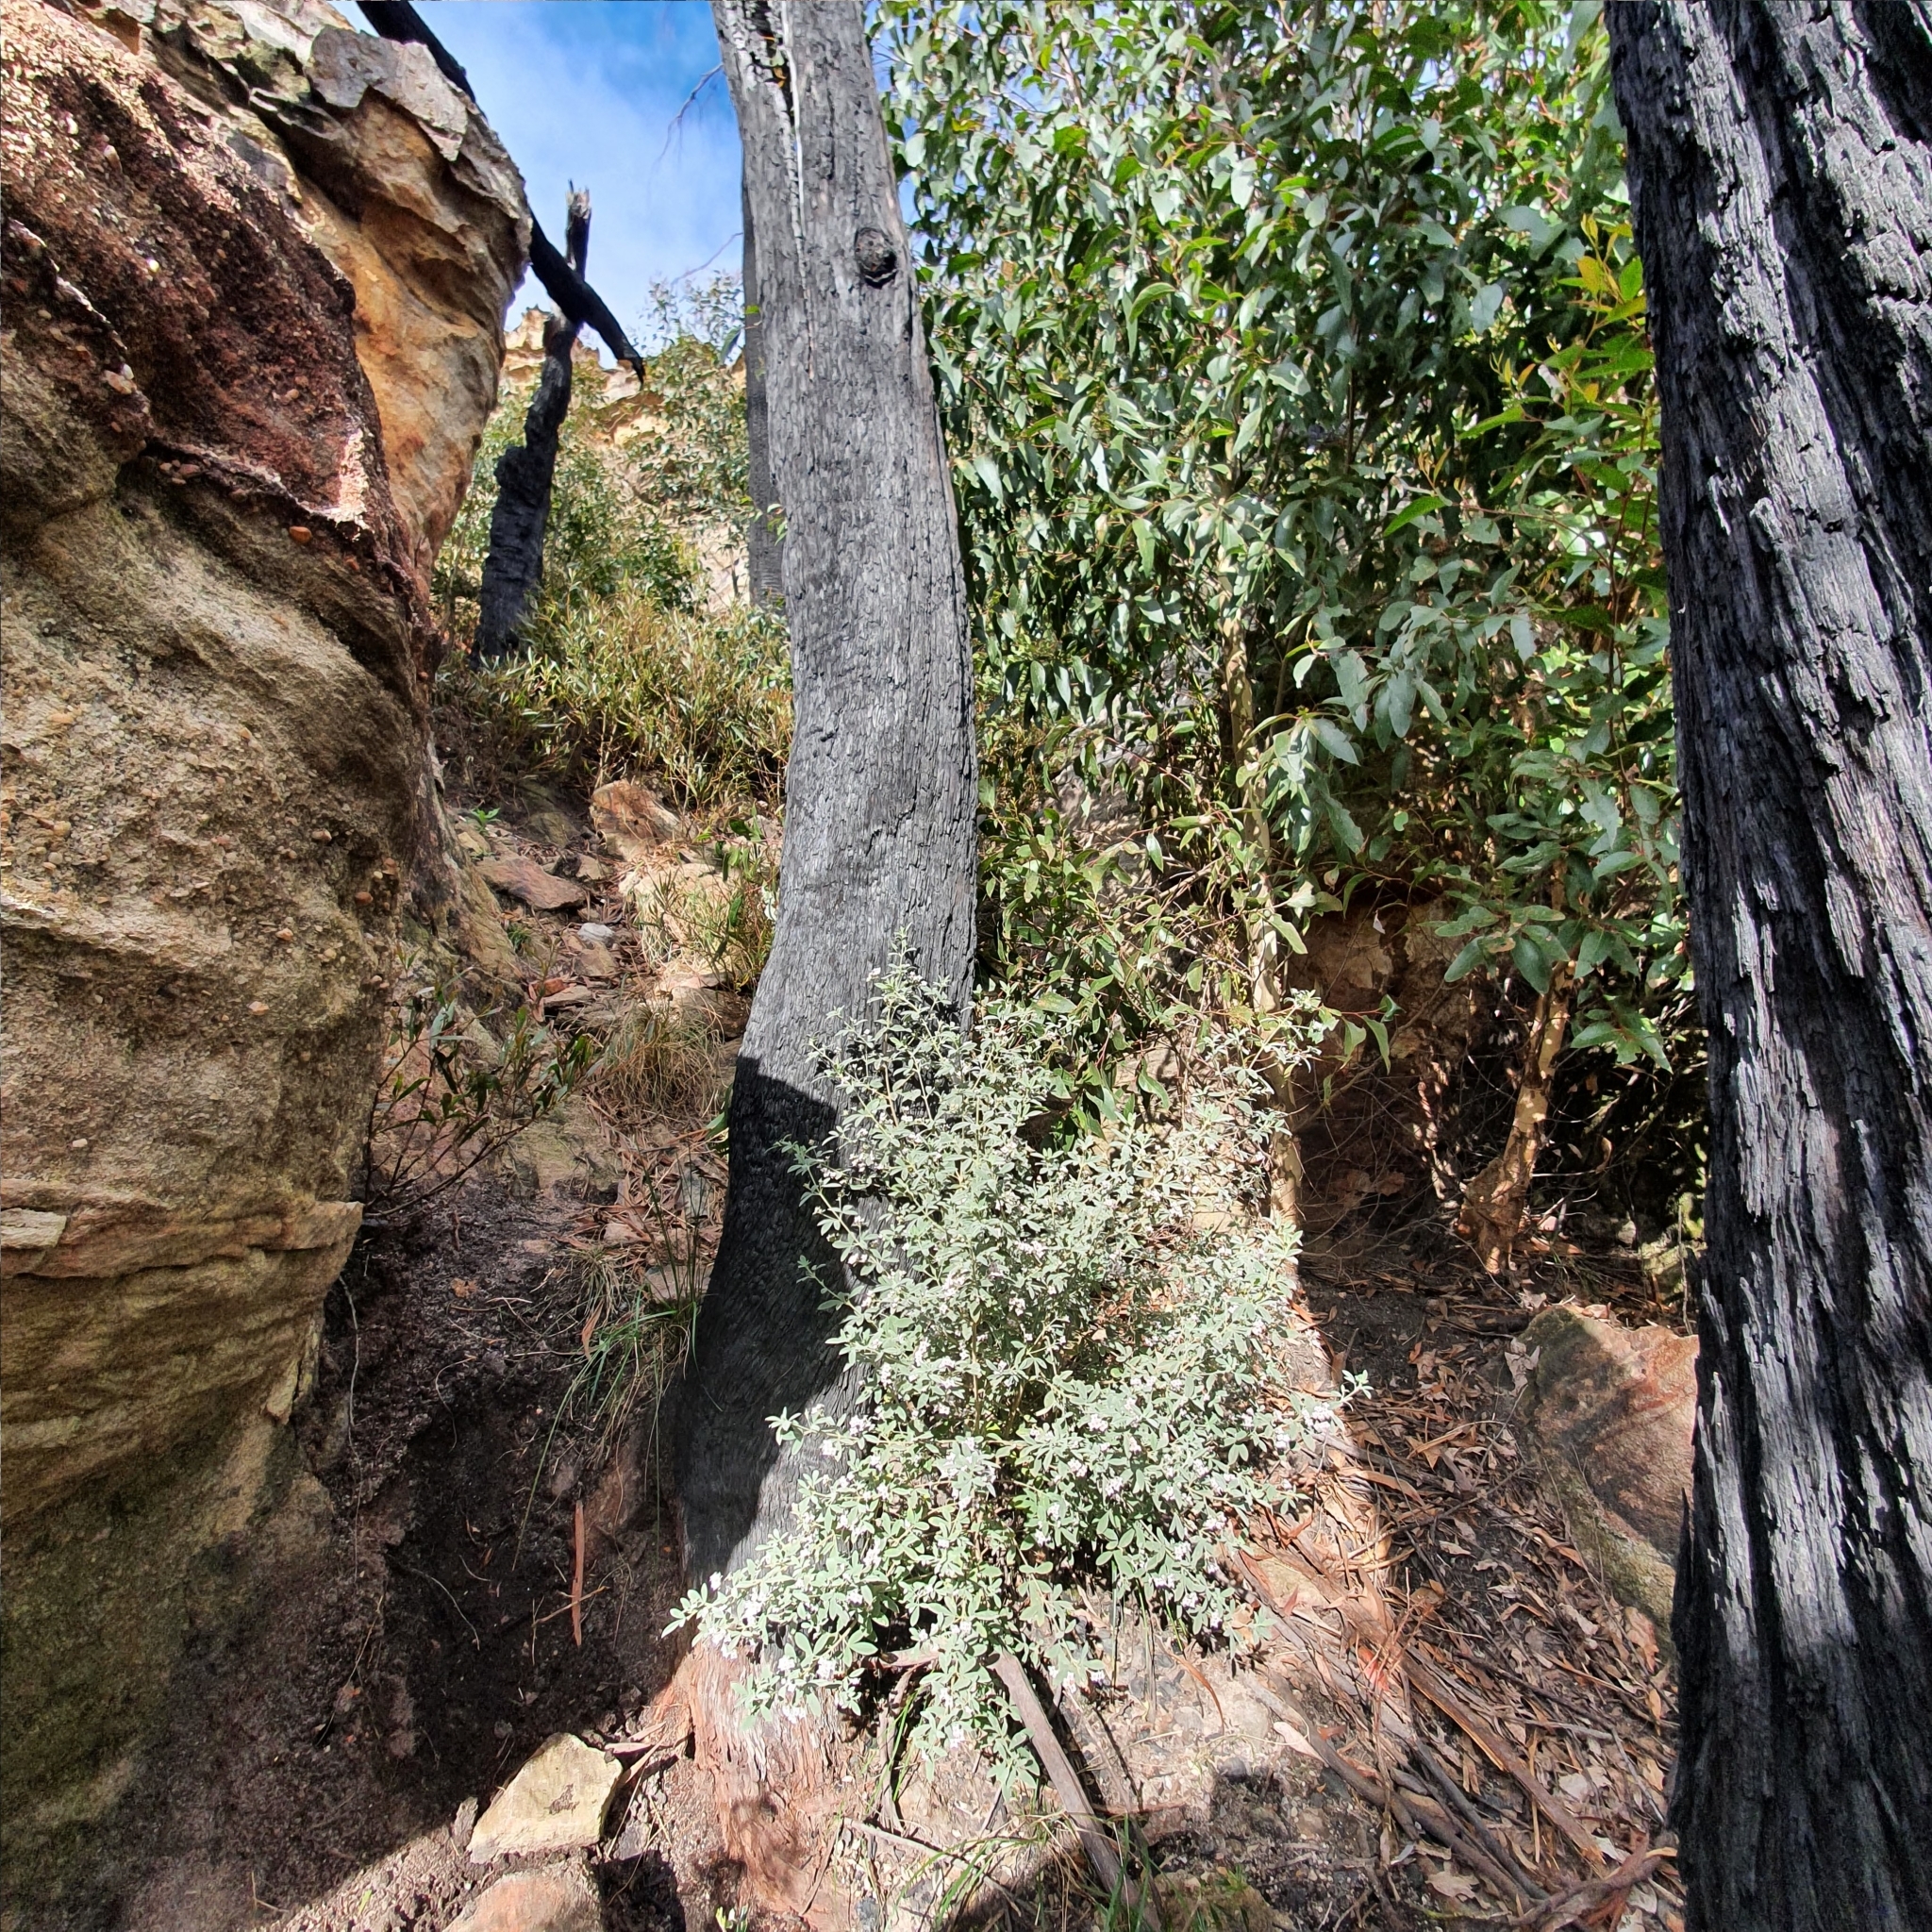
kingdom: Plantae
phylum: Tracheophyta
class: Magnoliopsida
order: Sapindales
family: Rutaceae
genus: Zieria
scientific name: Zieria cytisoides
